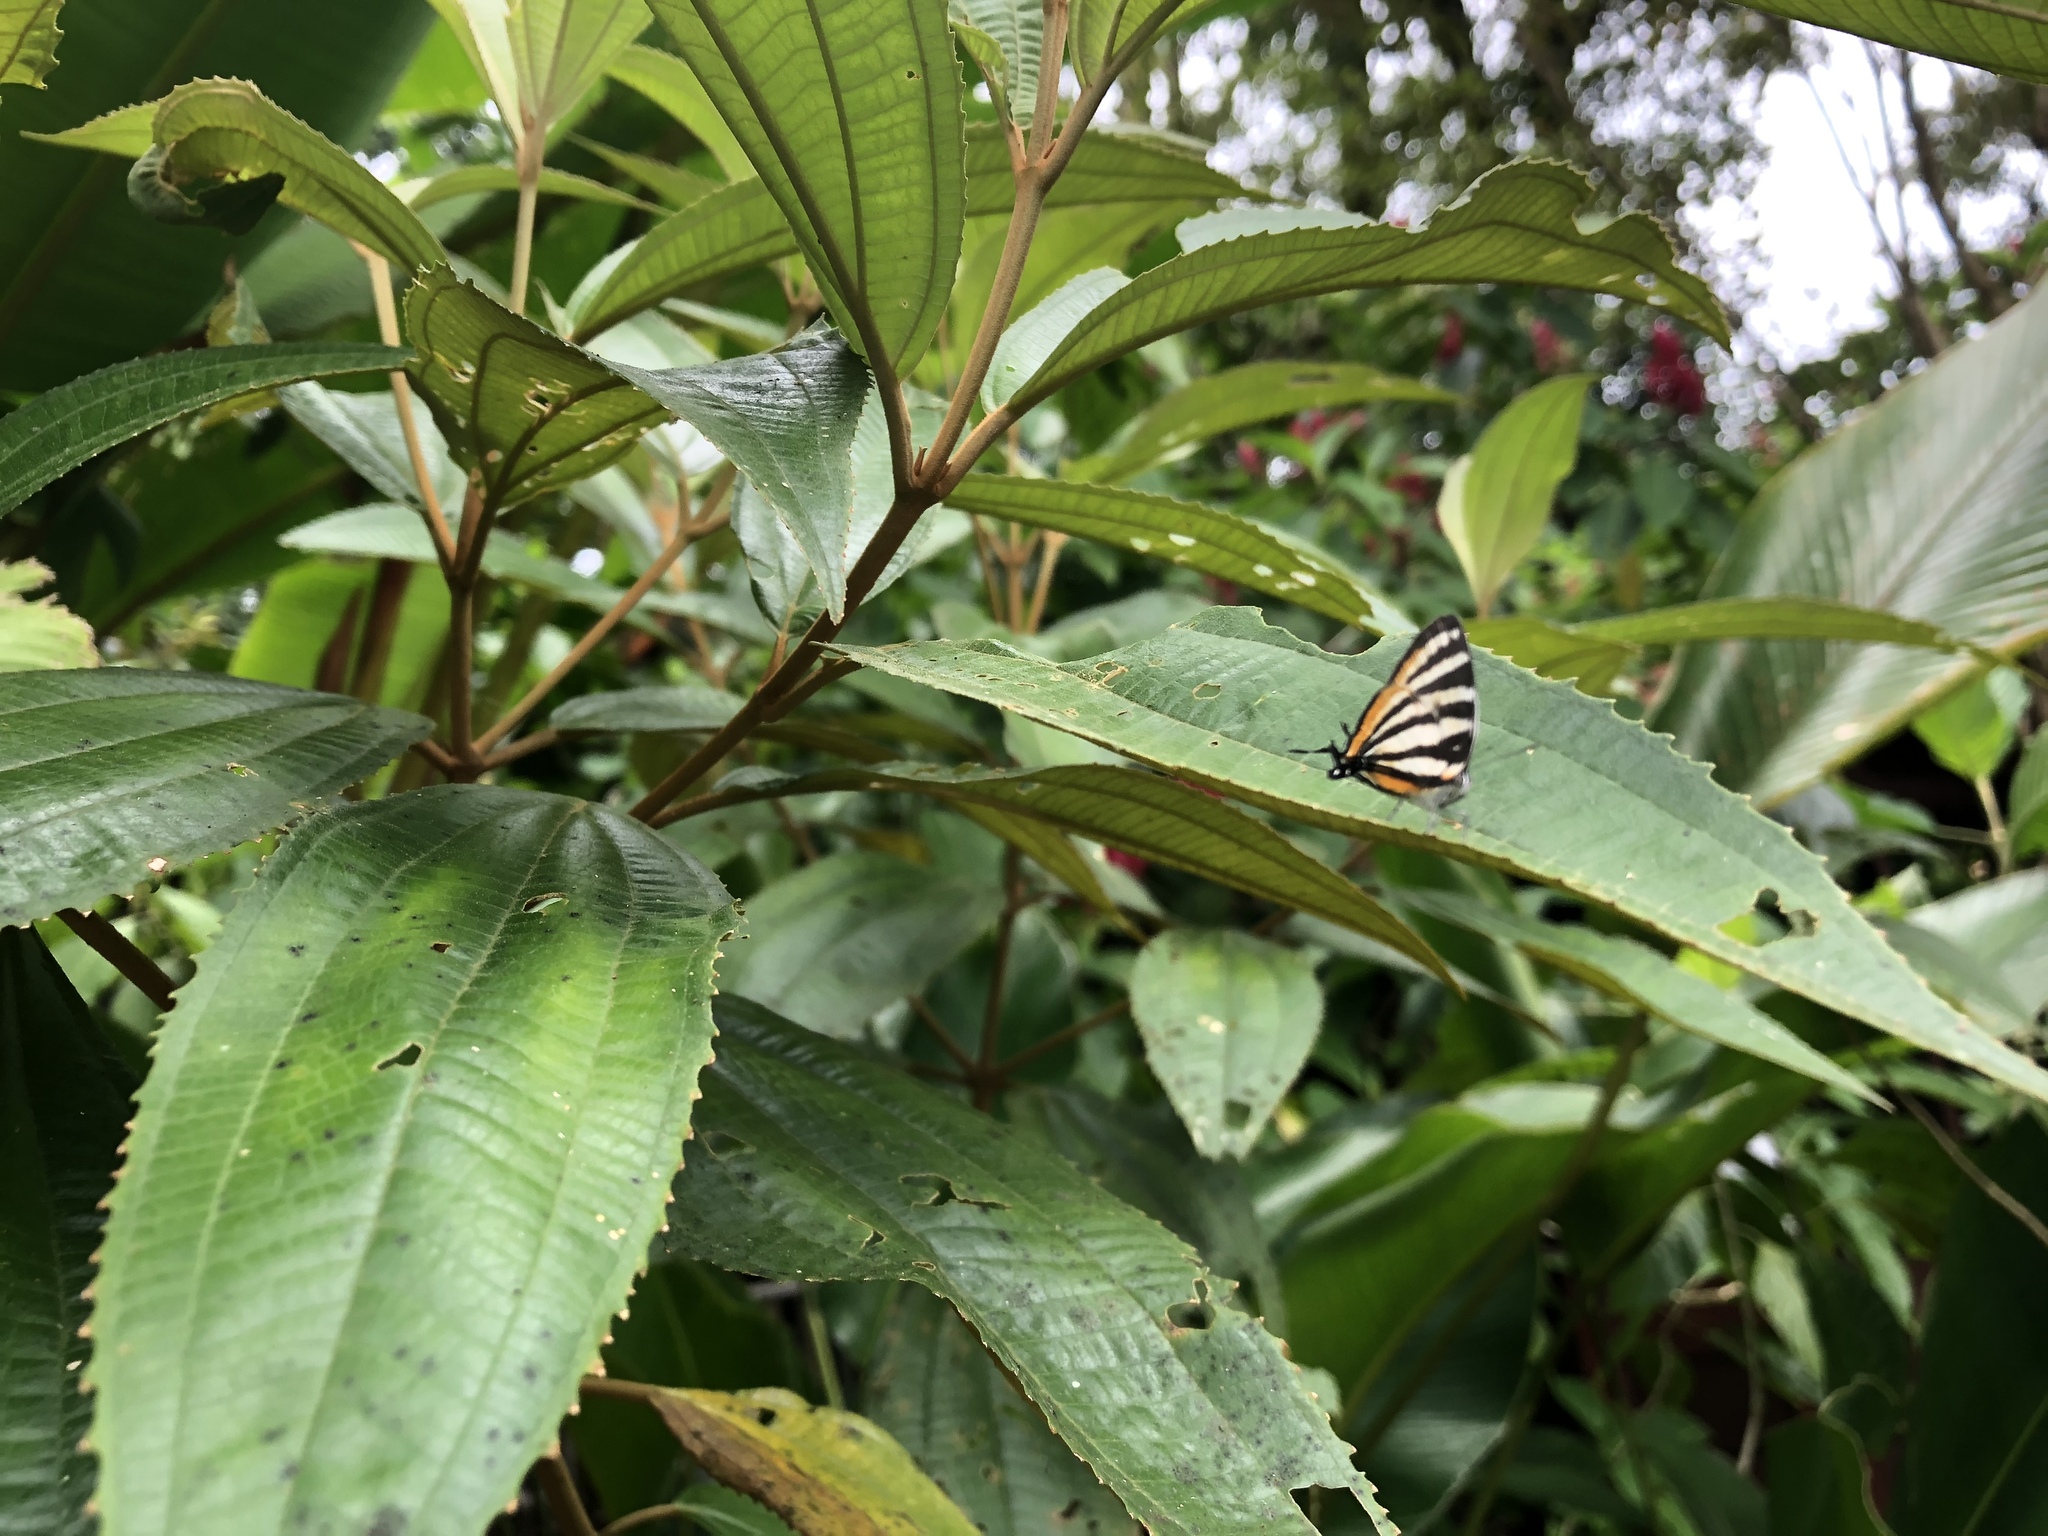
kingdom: Animalia
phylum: Arthropoda
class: Insecta
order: Lepidoptera
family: Lycaenidae
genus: Arawacus
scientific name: Arawacus togarna
